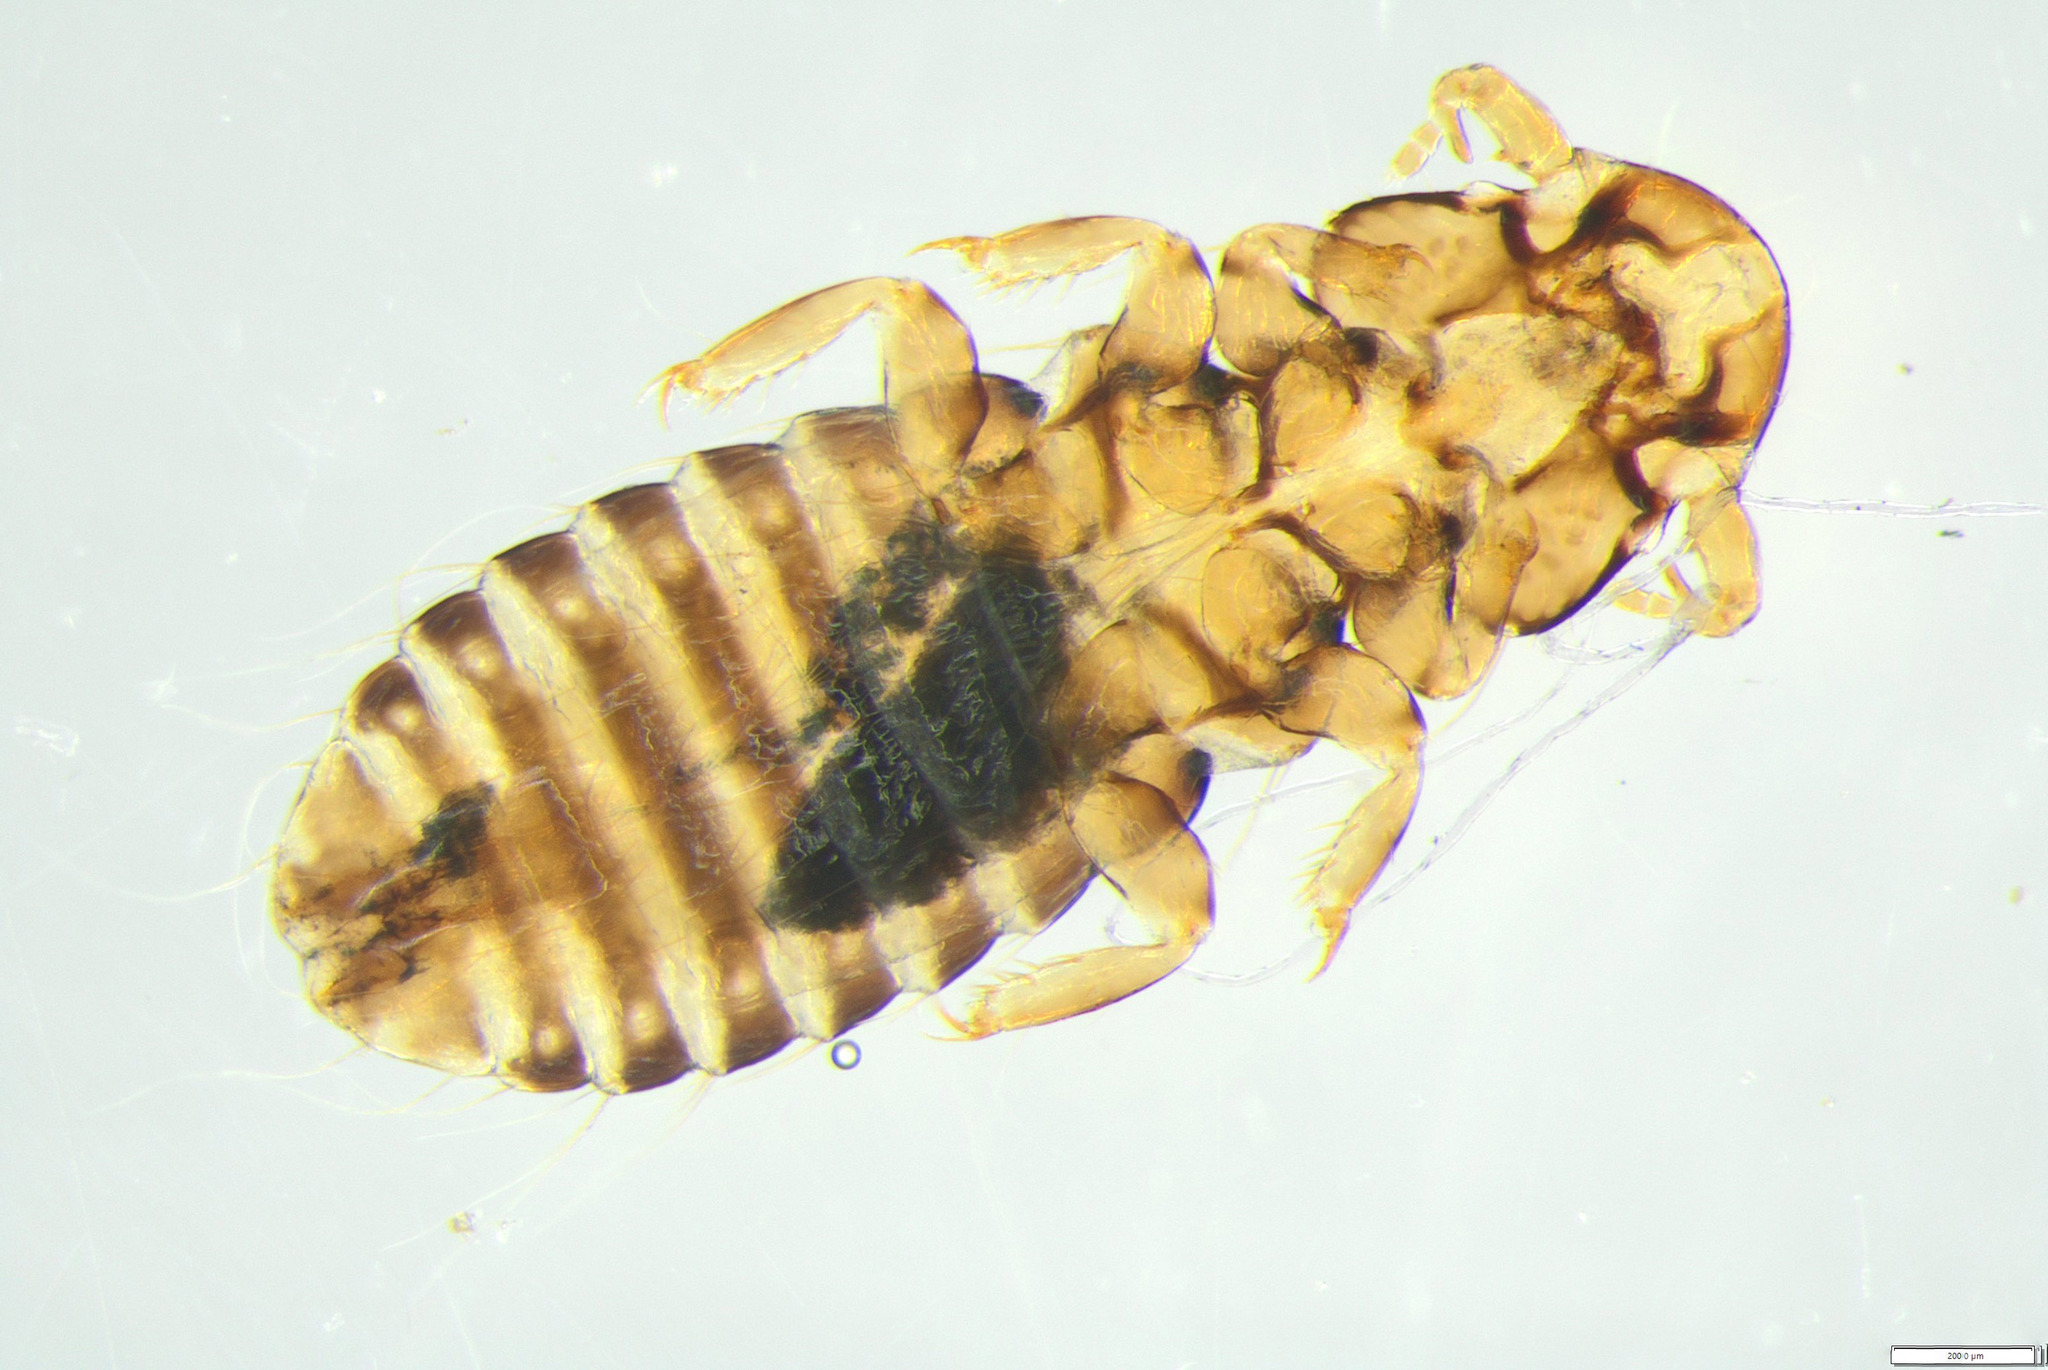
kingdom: Animalia
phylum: Arthropoda
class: Insecta
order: Psocodea
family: Philopteridae
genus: Rallicola
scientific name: Rallicola takahe
